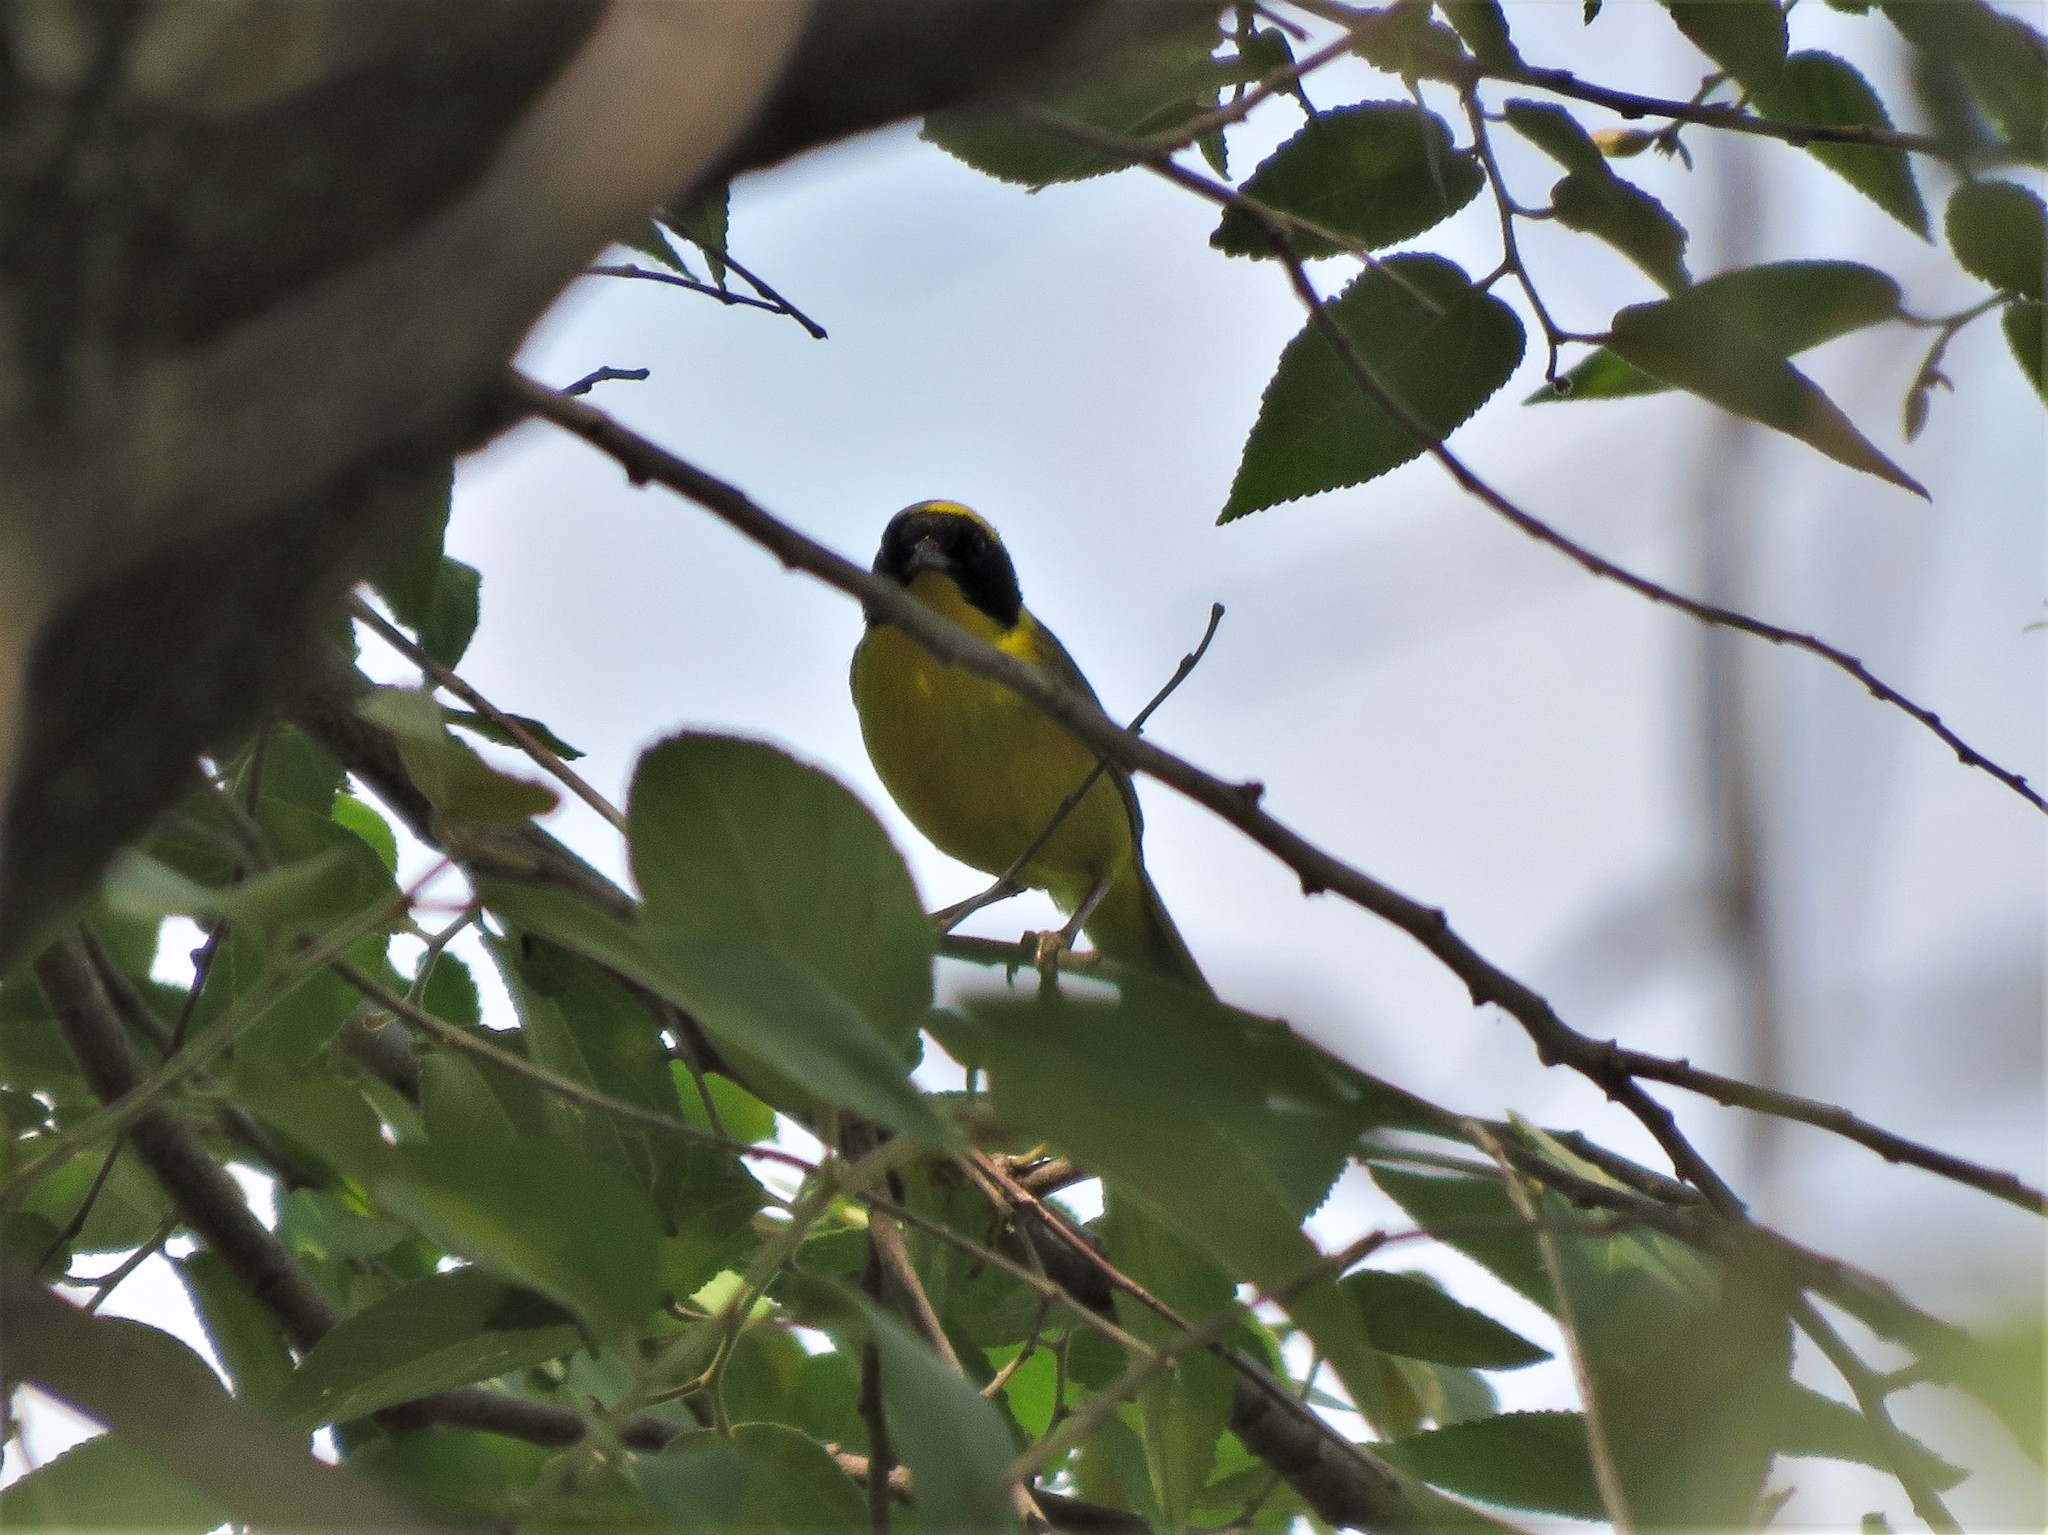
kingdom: Animalia
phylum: Chordata
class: Aves
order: Passeriformes
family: Parulidae
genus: Geothlypis
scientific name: Geothlypis flavovelata
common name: Altamira yellowthroat
